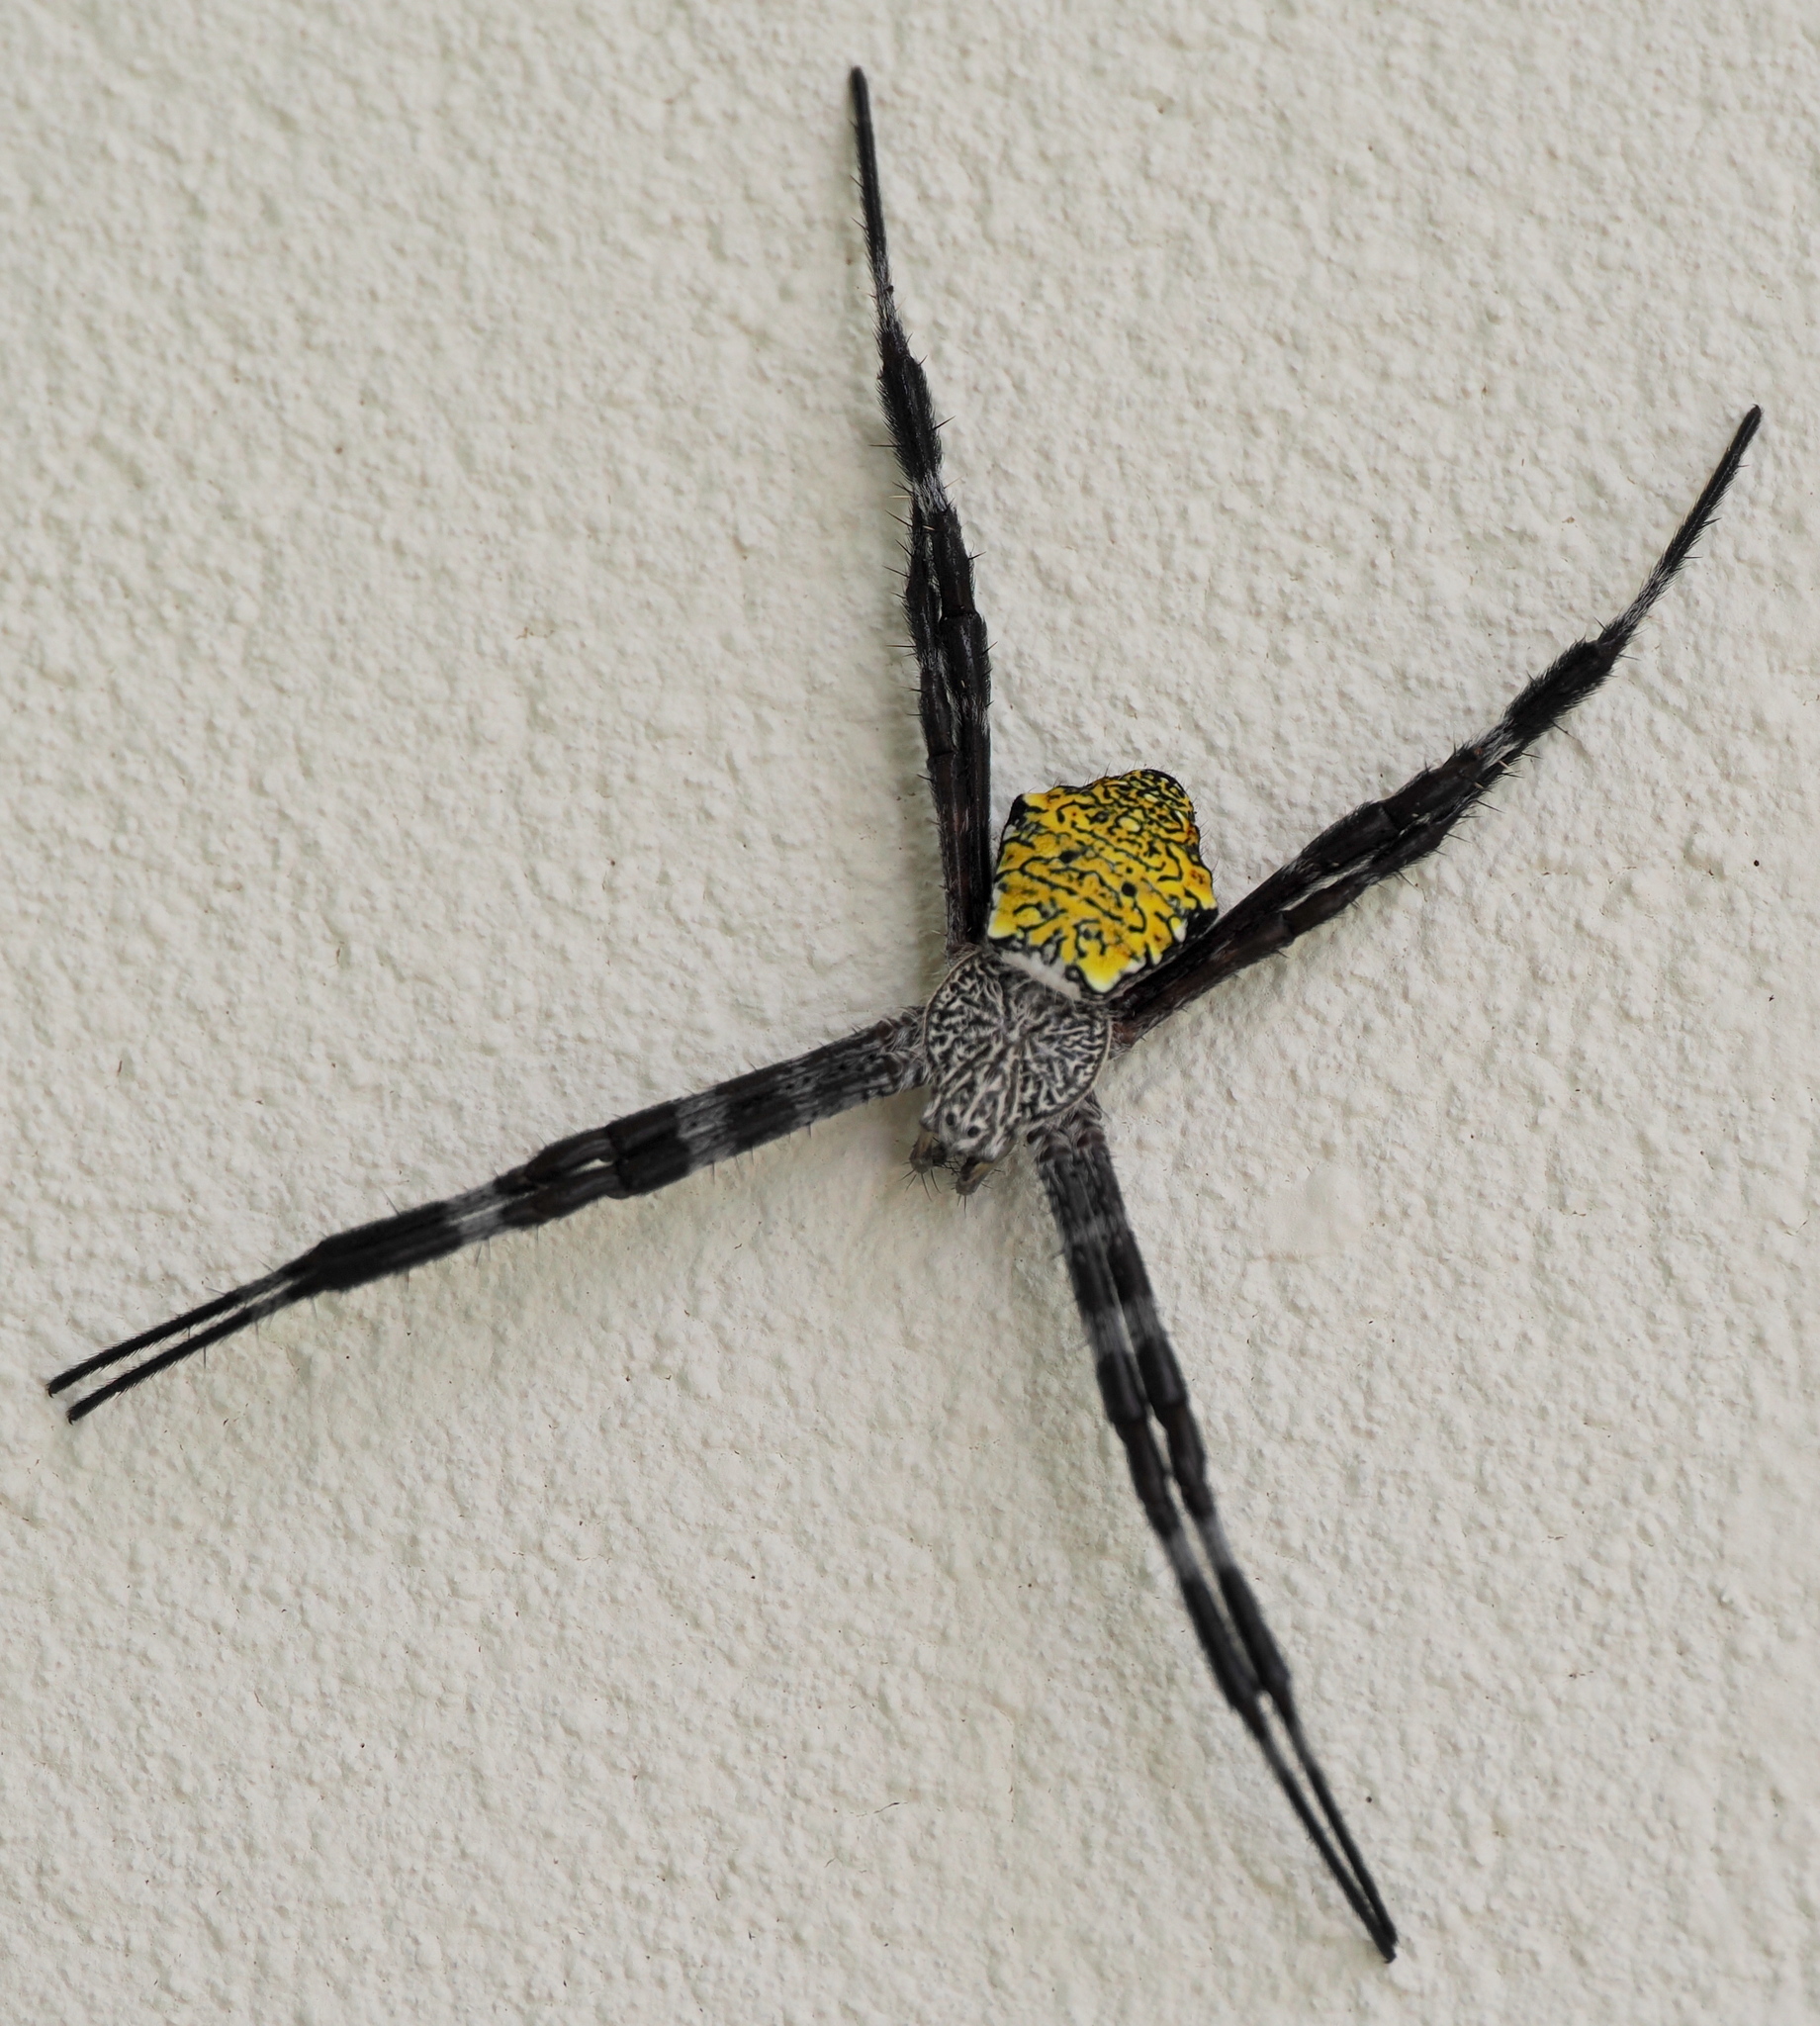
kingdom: Animalia
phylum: Arthropoda
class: Arachnida
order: Araneae
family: Araneidae
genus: Argiope
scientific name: Argiope appensa
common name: Garden spider
